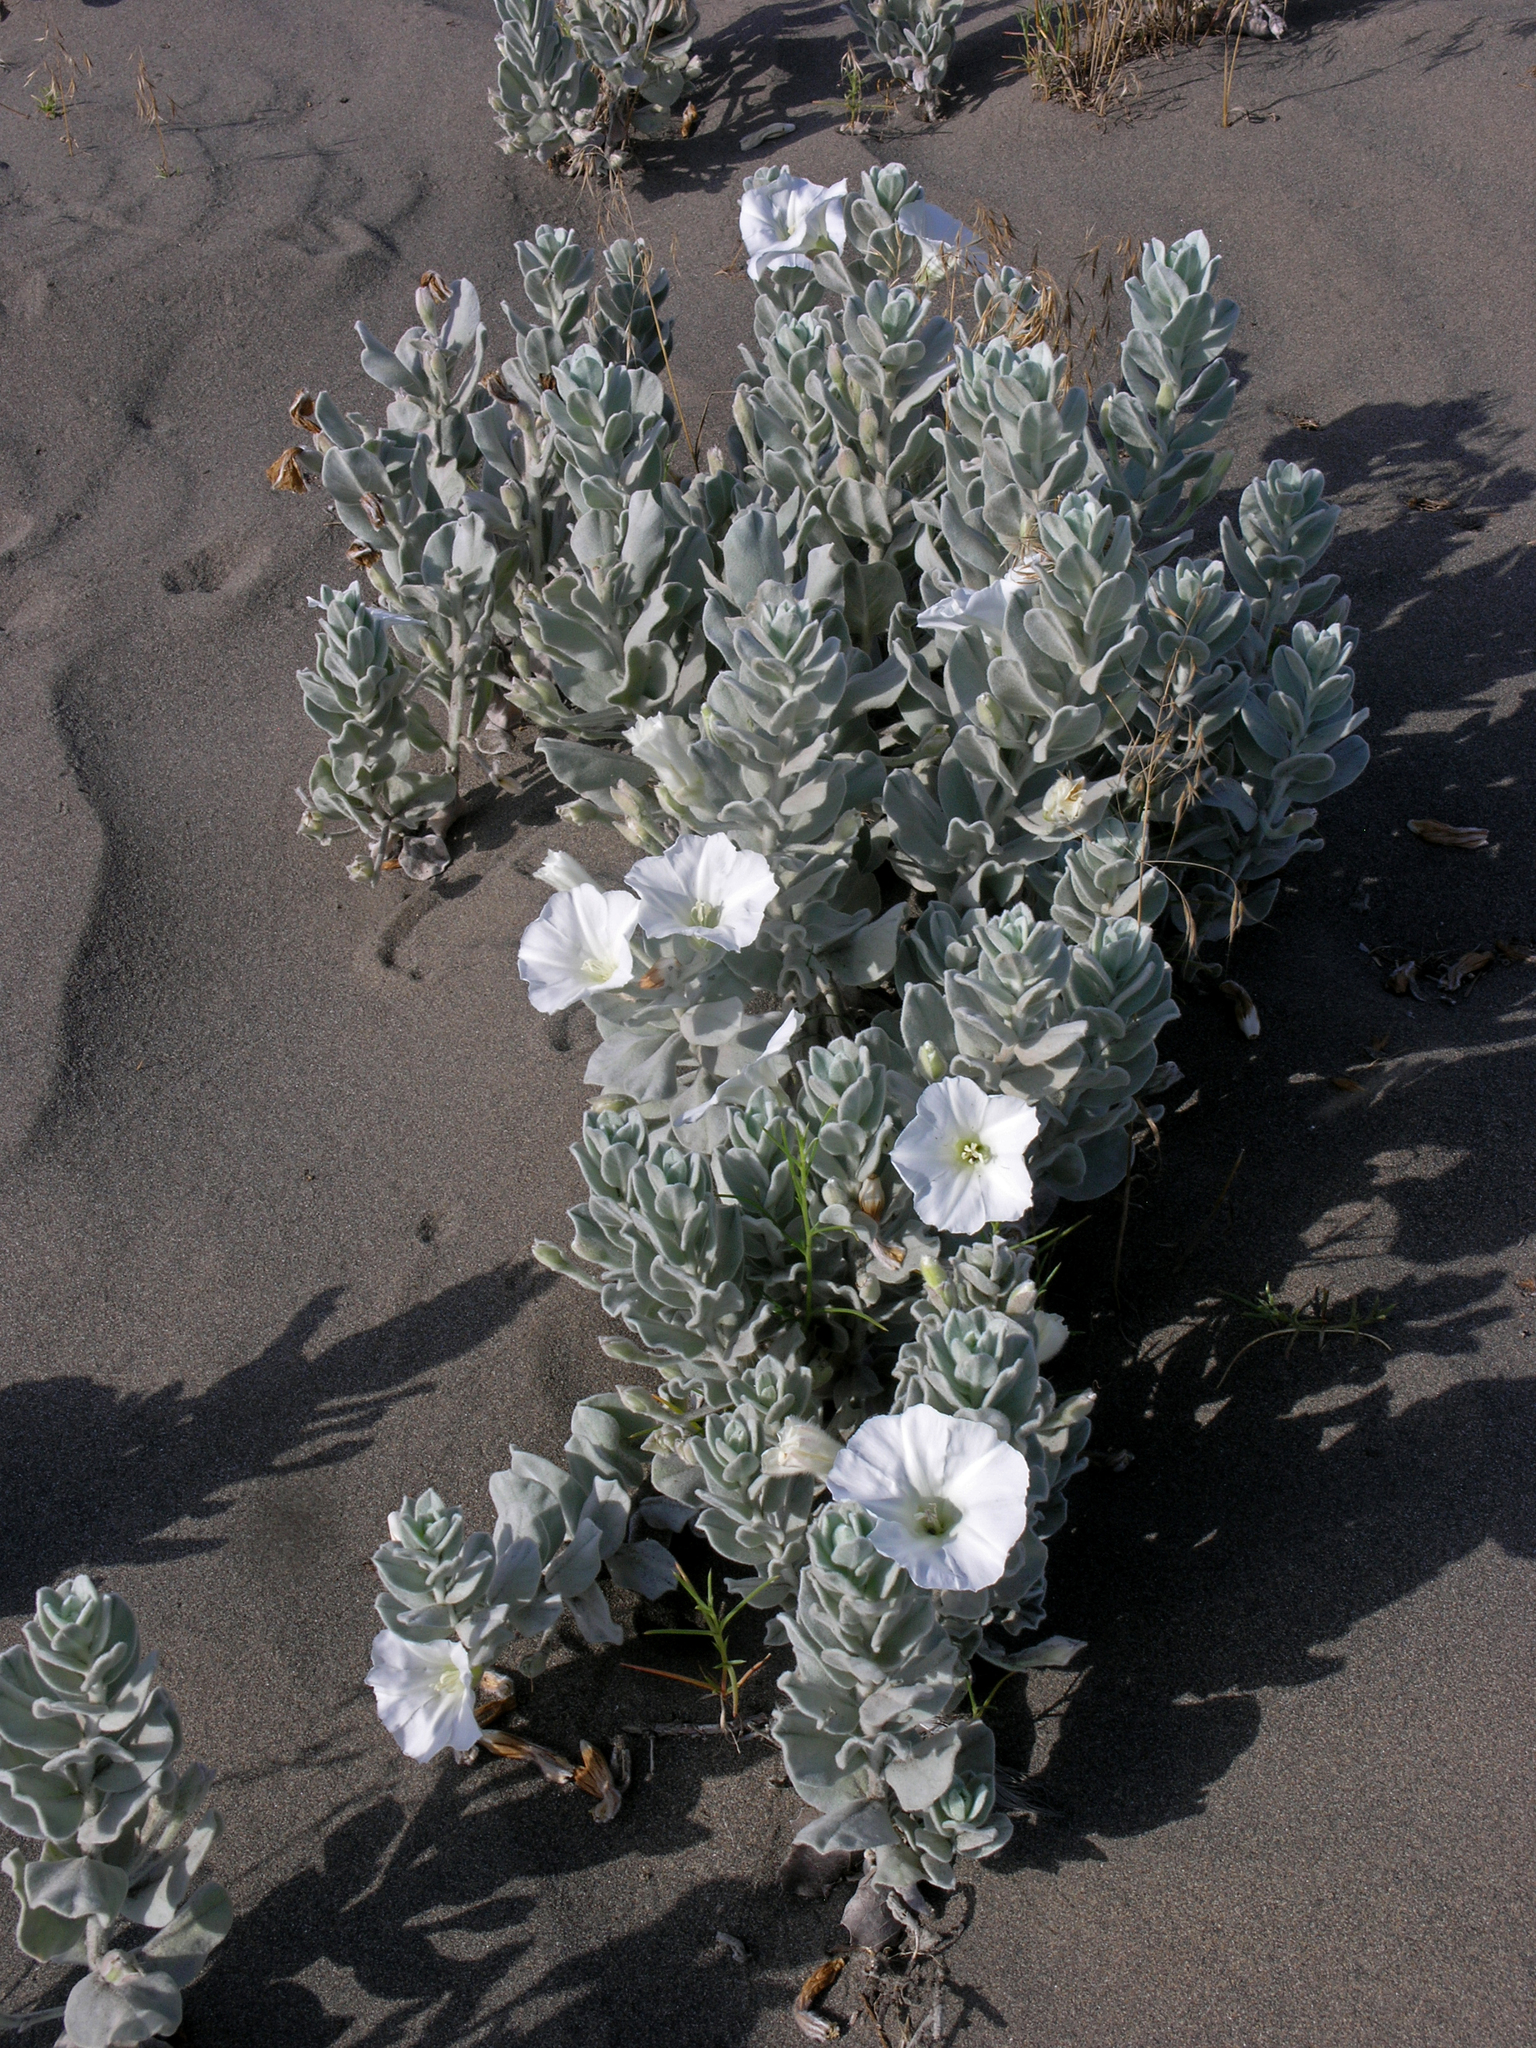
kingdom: Plantae
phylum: Tracheophyta
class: Magnoliopsida
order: Solanales
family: Convolvulaceae
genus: Convolvulus
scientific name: Convolvulus persicus
